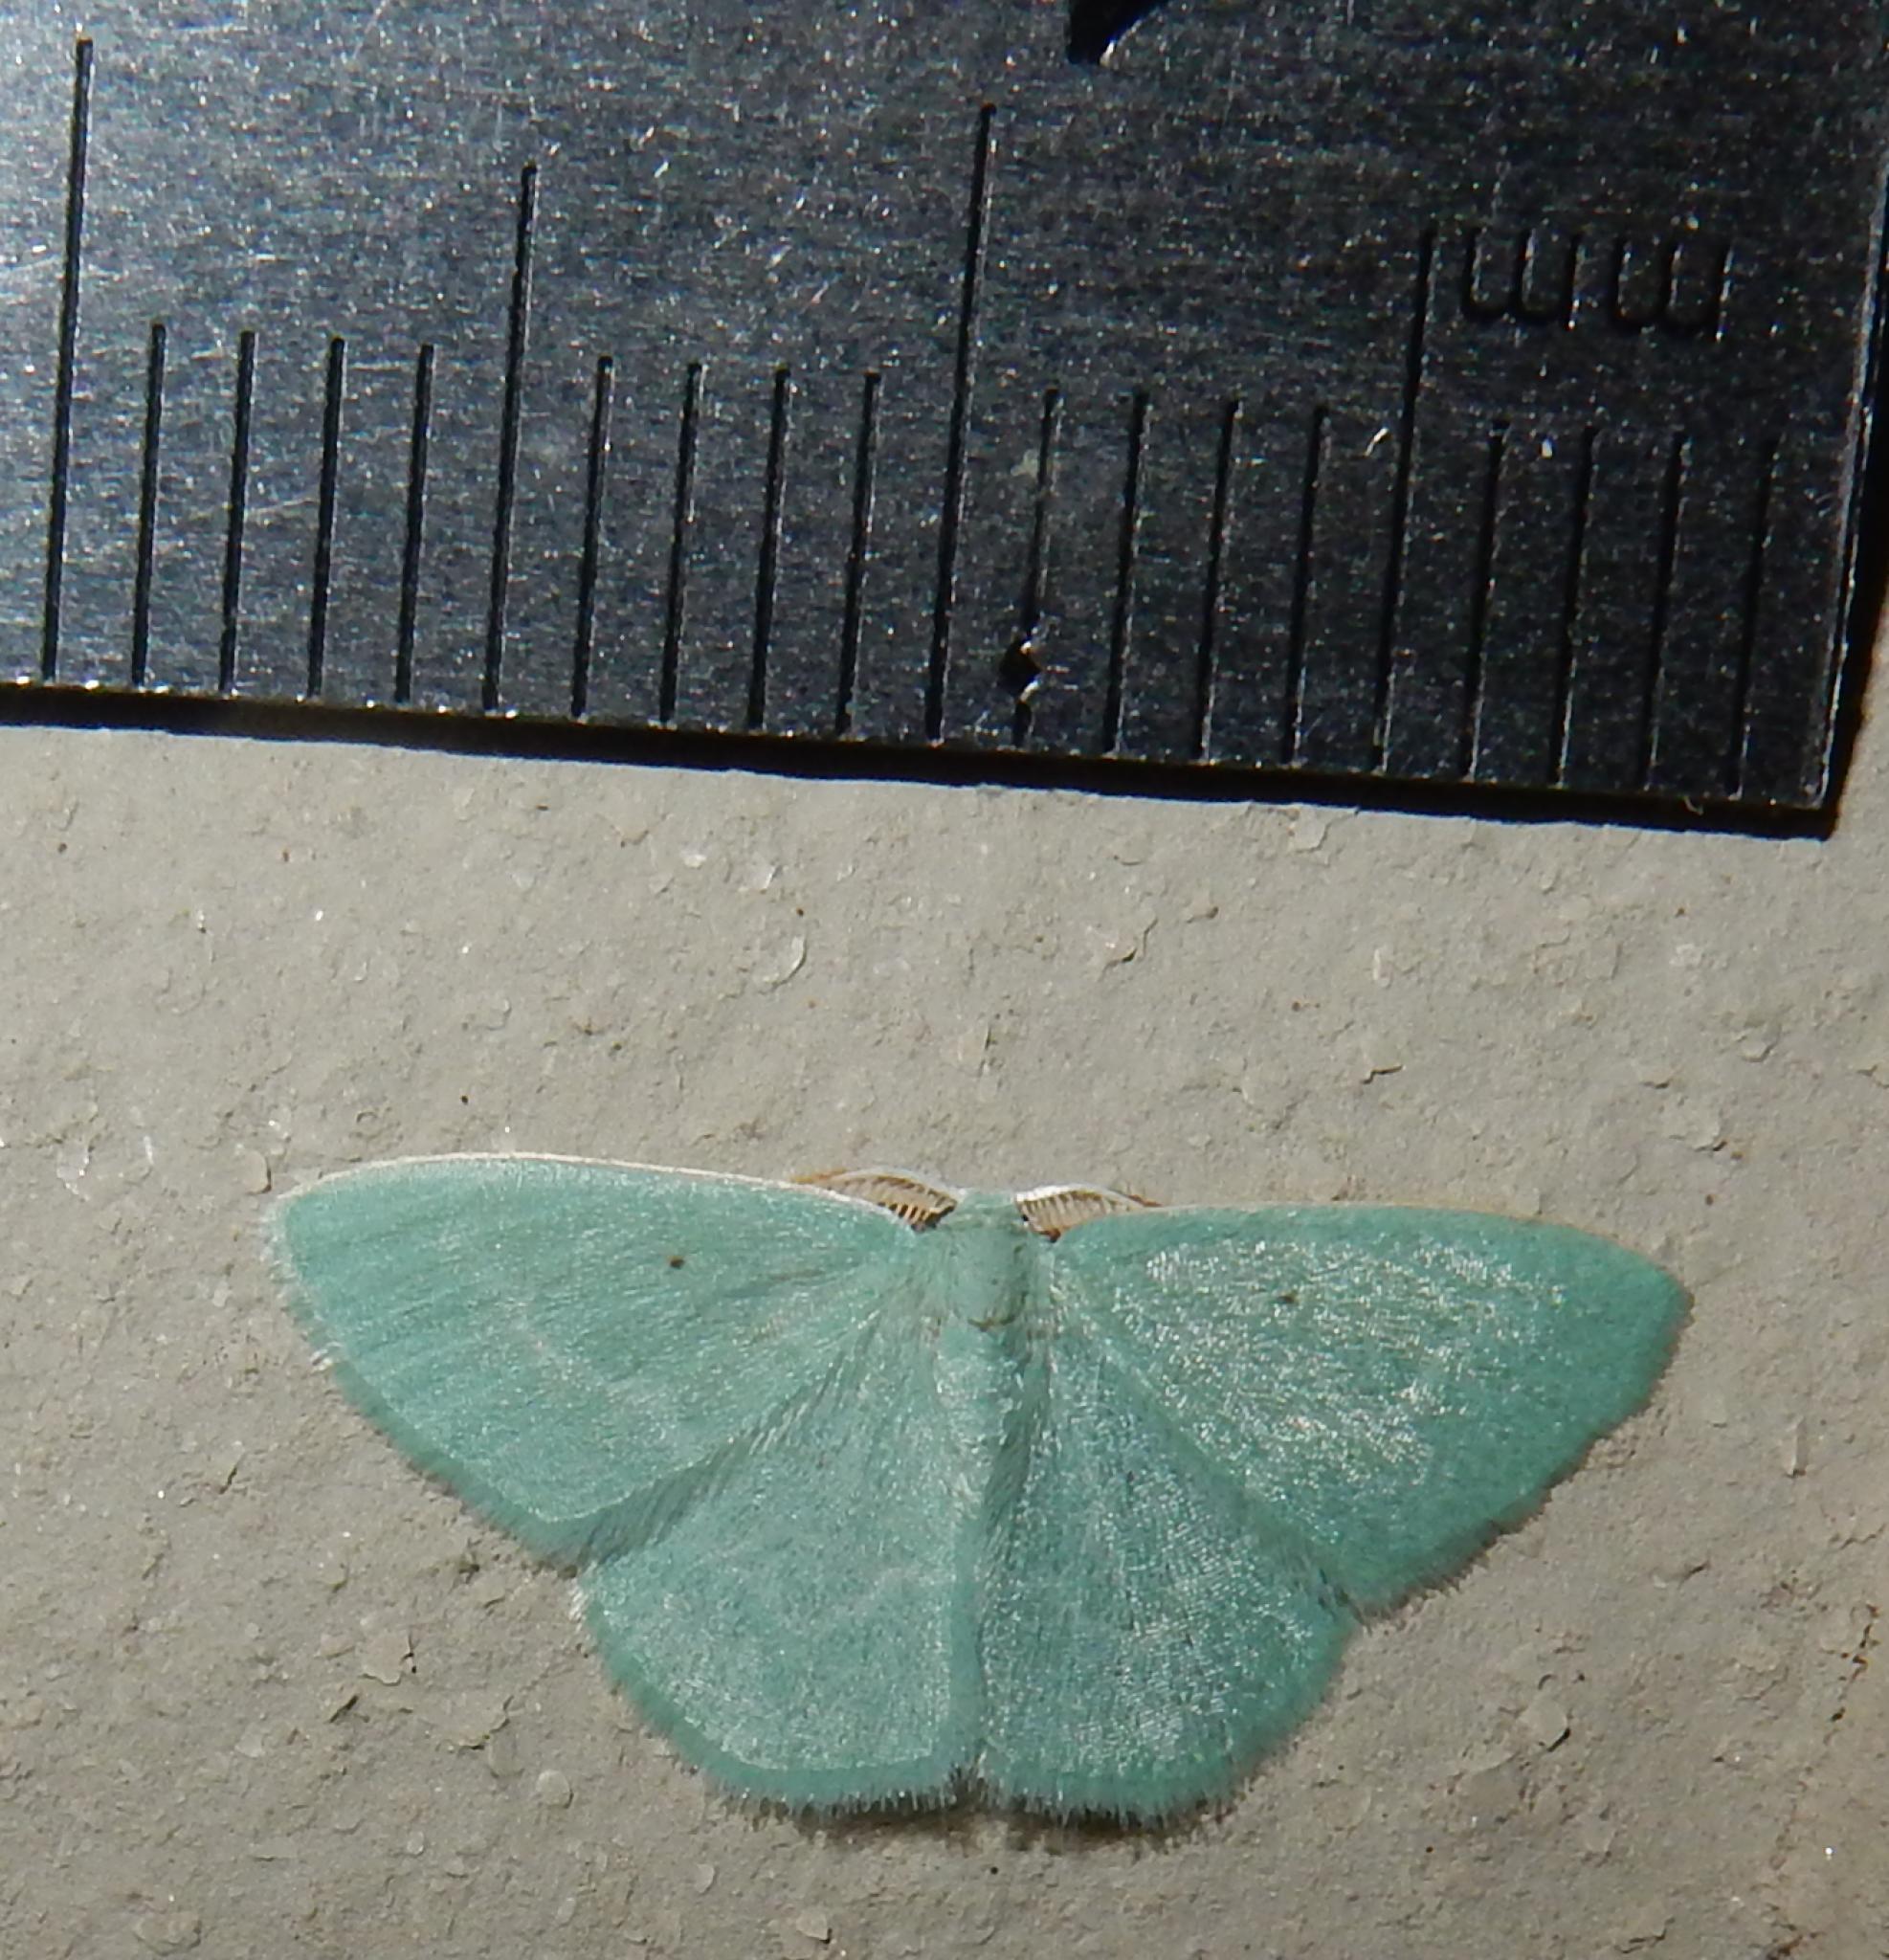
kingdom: Animalia
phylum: Arthropoda
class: Insecta
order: Lepidoptera
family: Geometridae
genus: Comostolopsis
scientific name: Comostolopsis capensis
